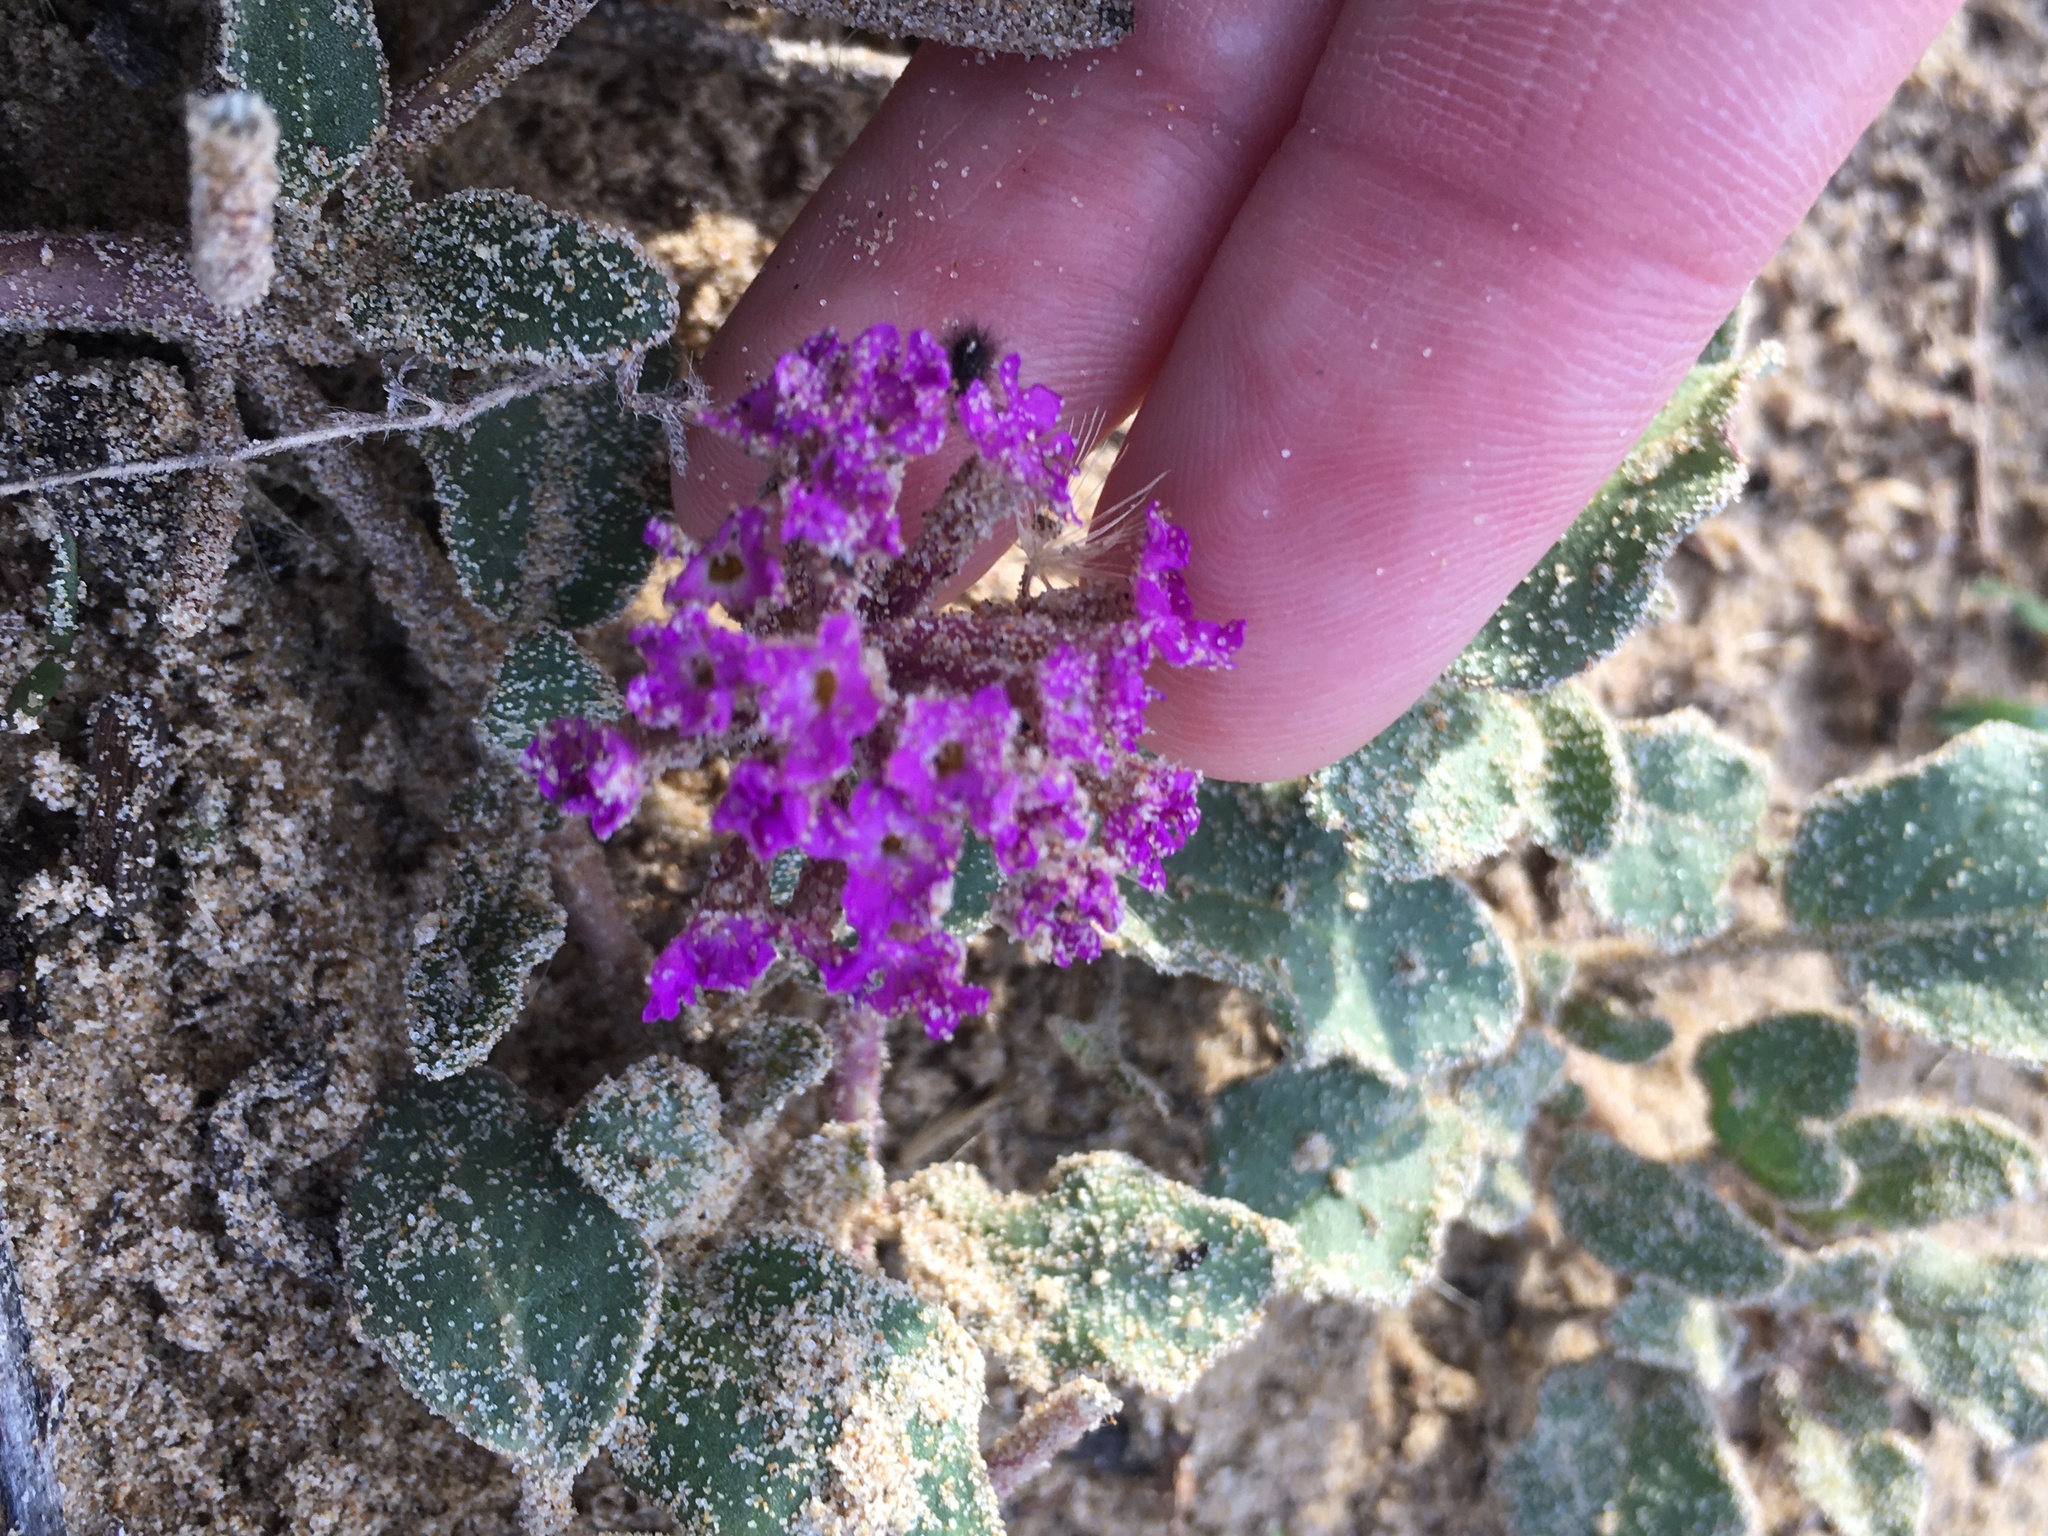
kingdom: Plantae
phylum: Tracheophyta
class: Magnoliopsida
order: Caryophyllales
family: Nyctaginaceae
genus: Abronia
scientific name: Abronia umbellata
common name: Sand-verbena
